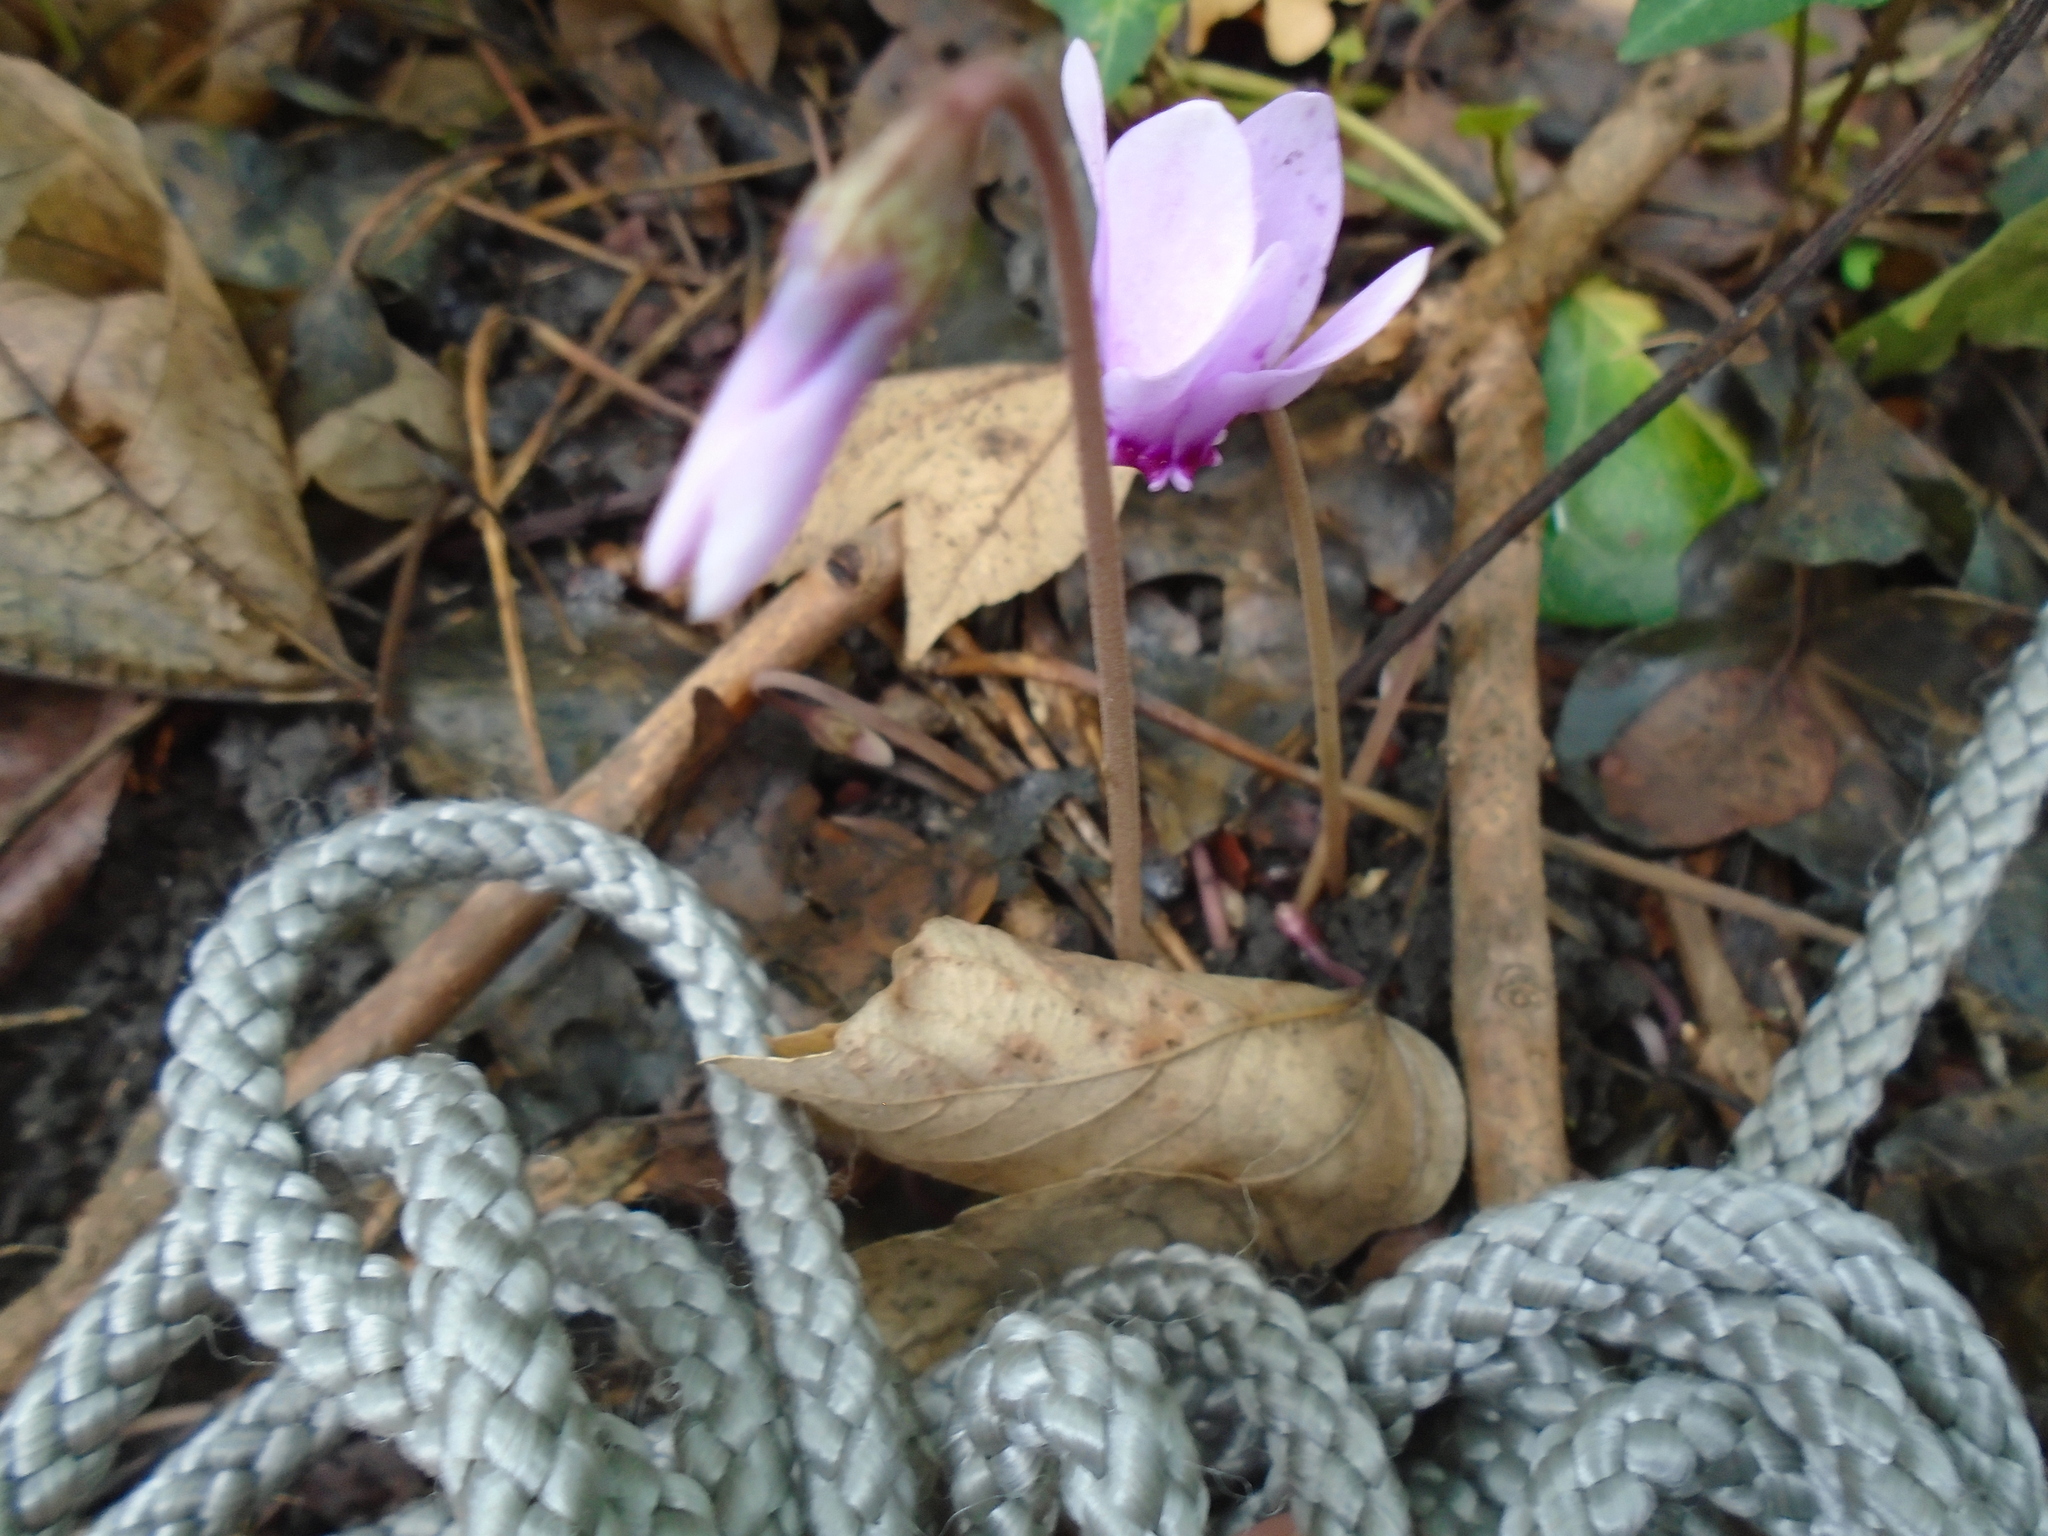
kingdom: Plantae
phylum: Tracheophyta
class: Magnoliopsida
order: Ericales
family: Primulaceae
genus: Cyclamen
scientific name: Cyclamen hederifolium
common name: Sowbread
